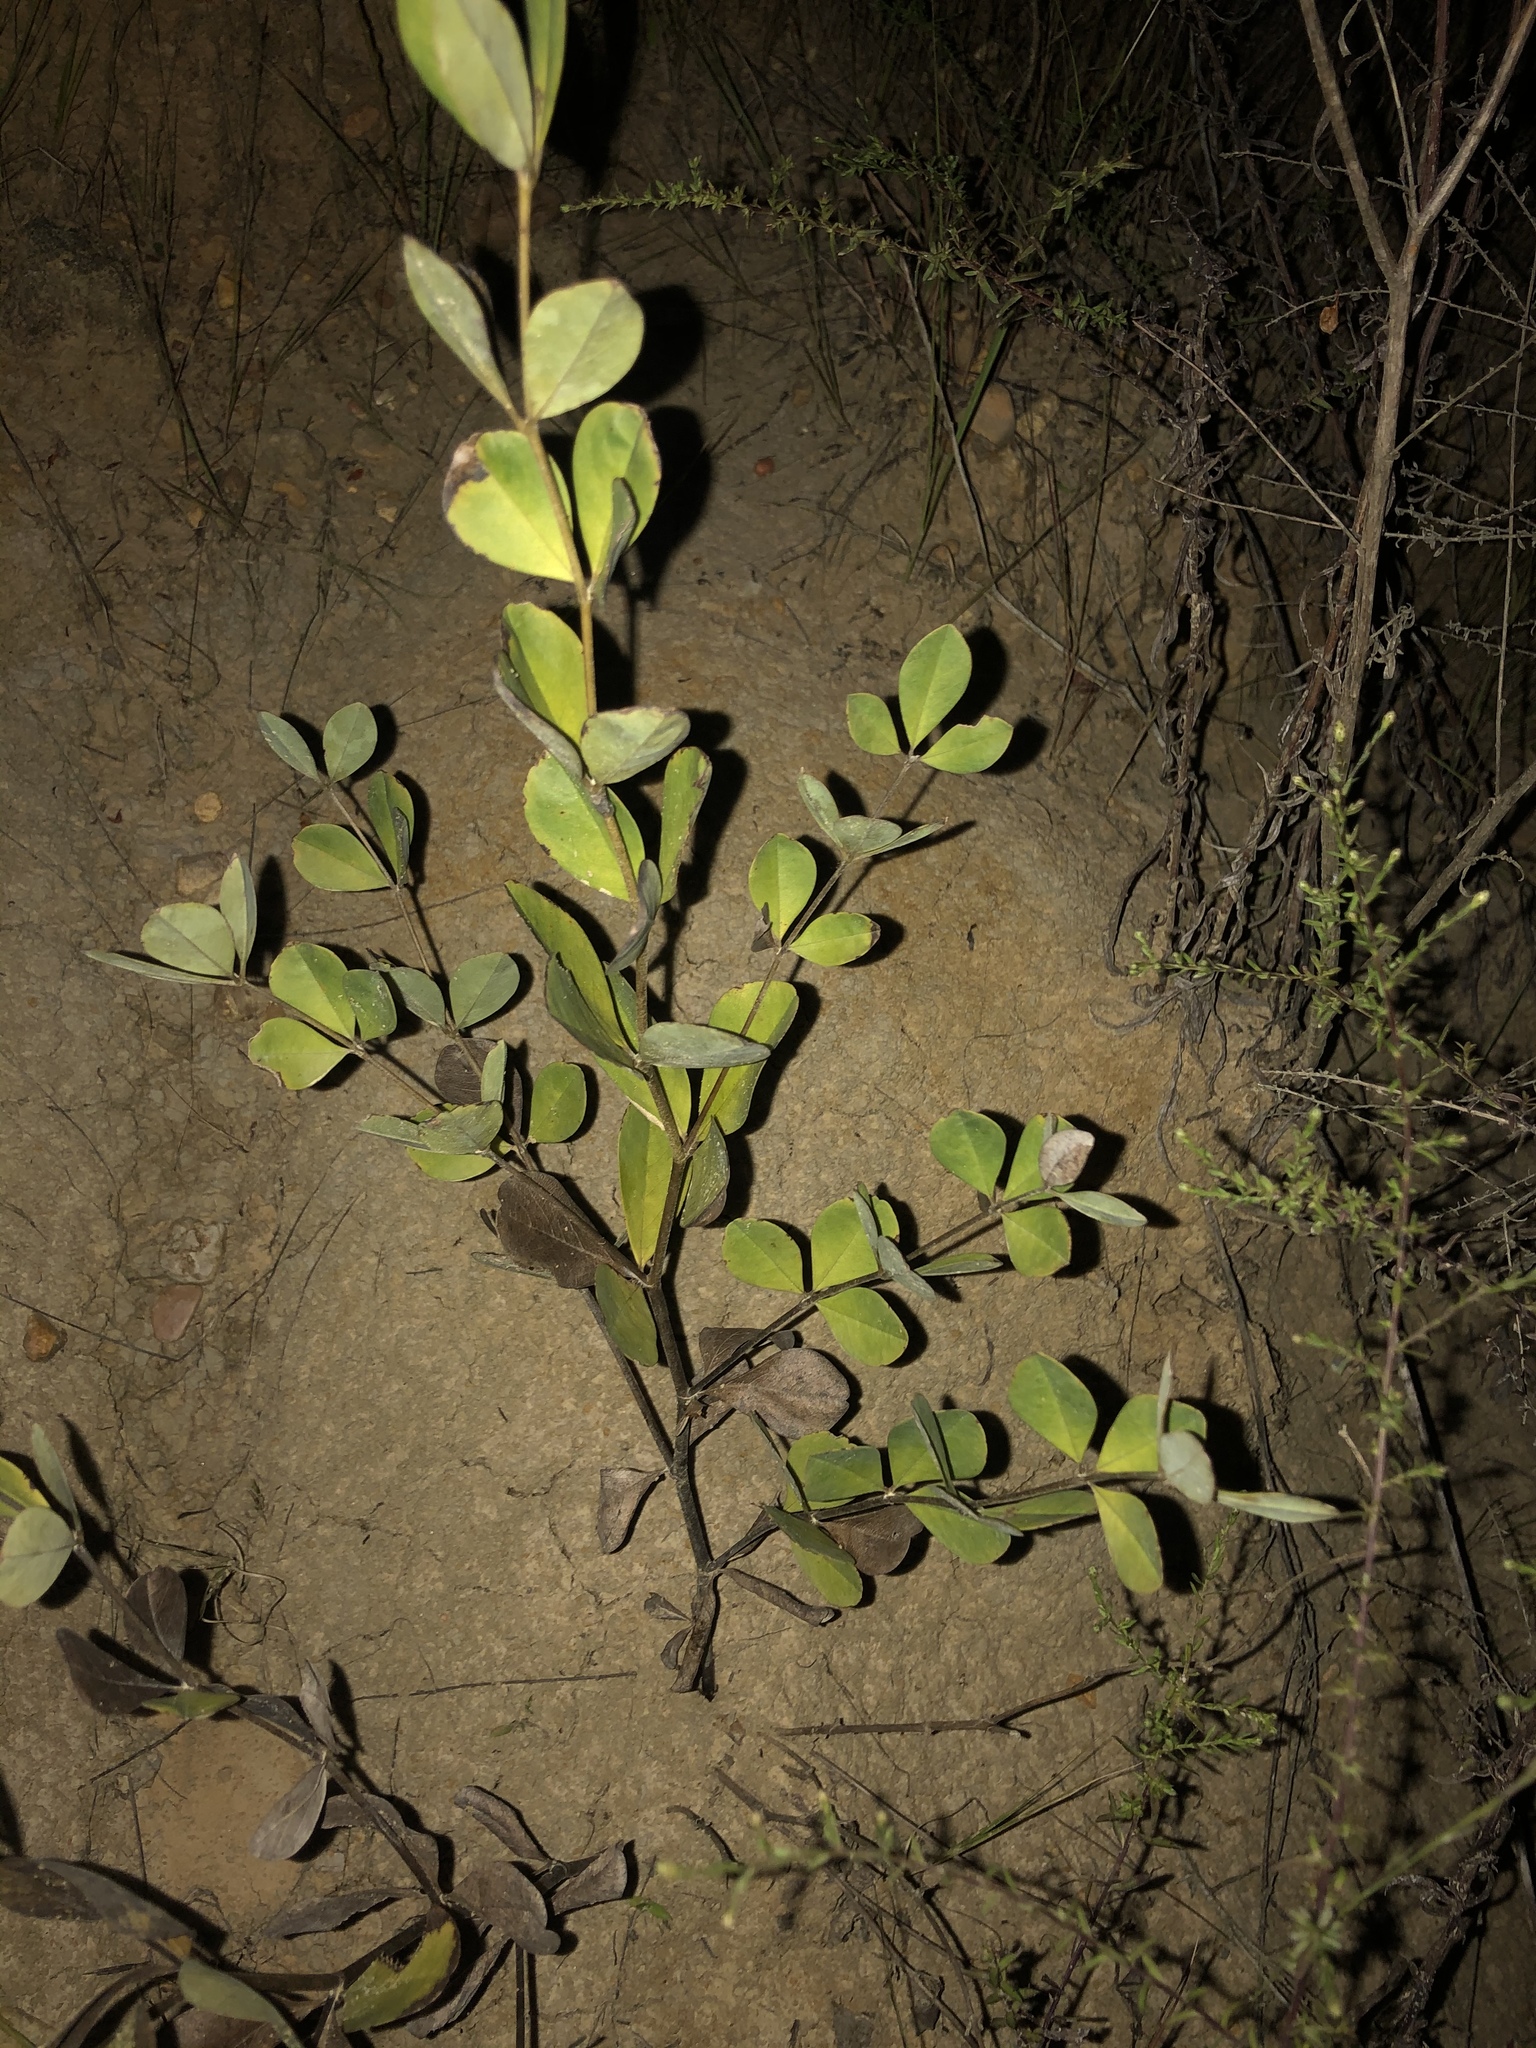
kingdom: Plantae
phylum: Tracheophyta
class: Magnoliopsida
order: Fabales
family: Fabaceae
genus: Baptisia
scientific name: Baptisia nuttalliana
